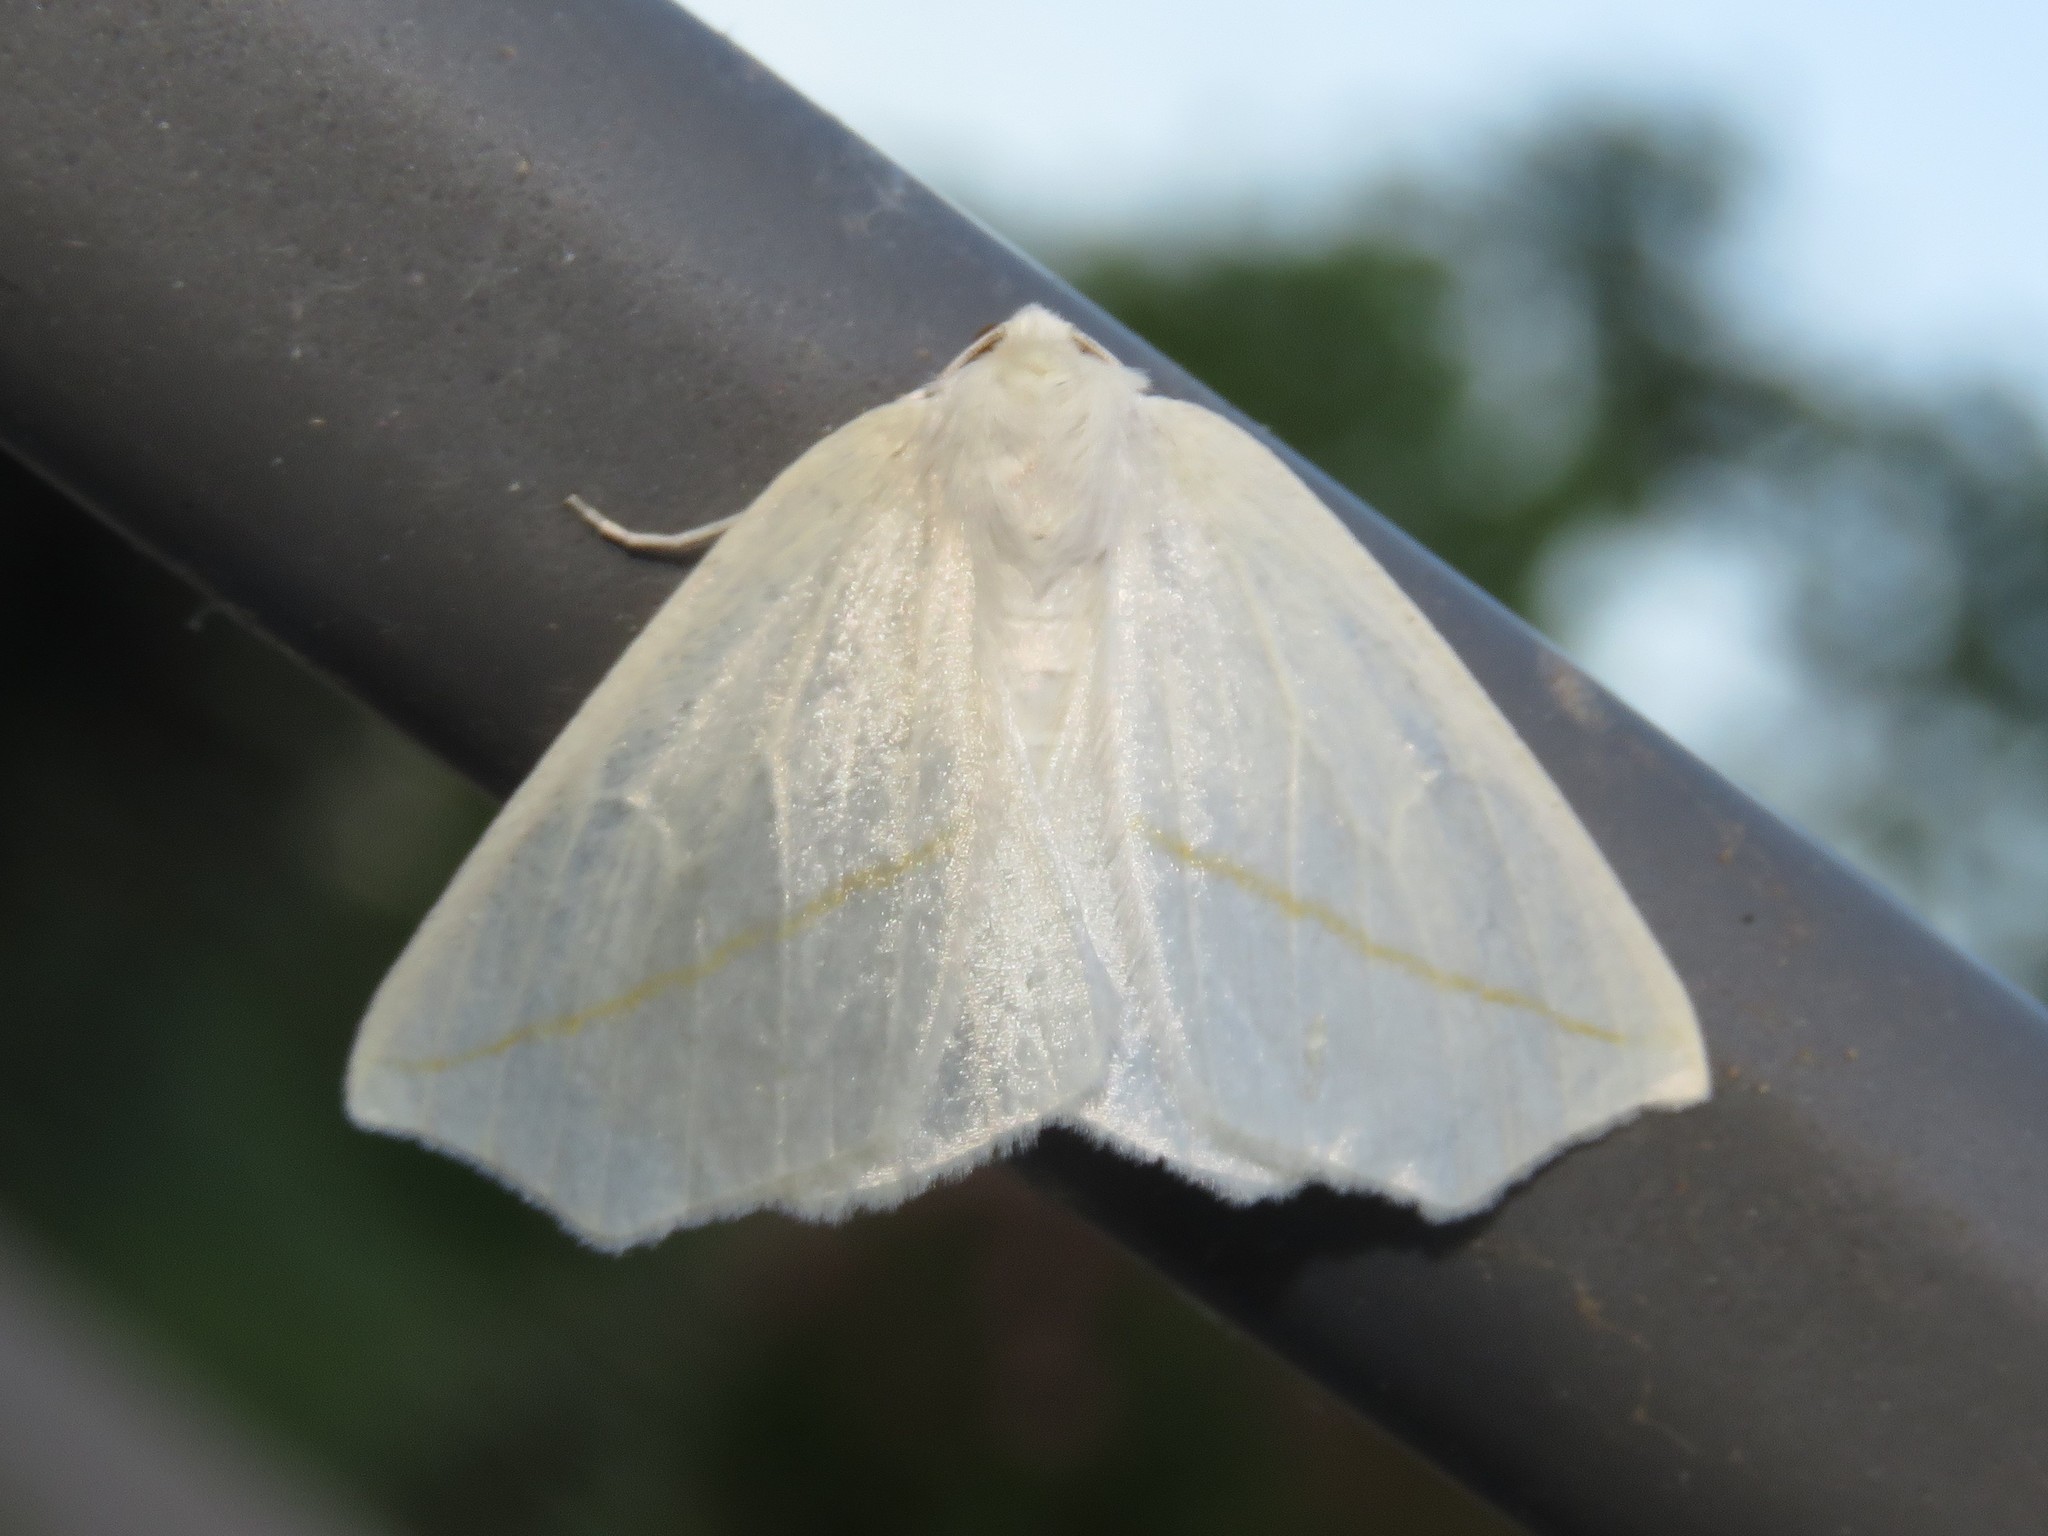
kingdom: Animalia
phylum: Arthropoda
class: Insecta
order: Lepidoptera
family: Geometridae
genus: Tetracis
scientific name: Tetracis cachexiata
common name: White slant-line
